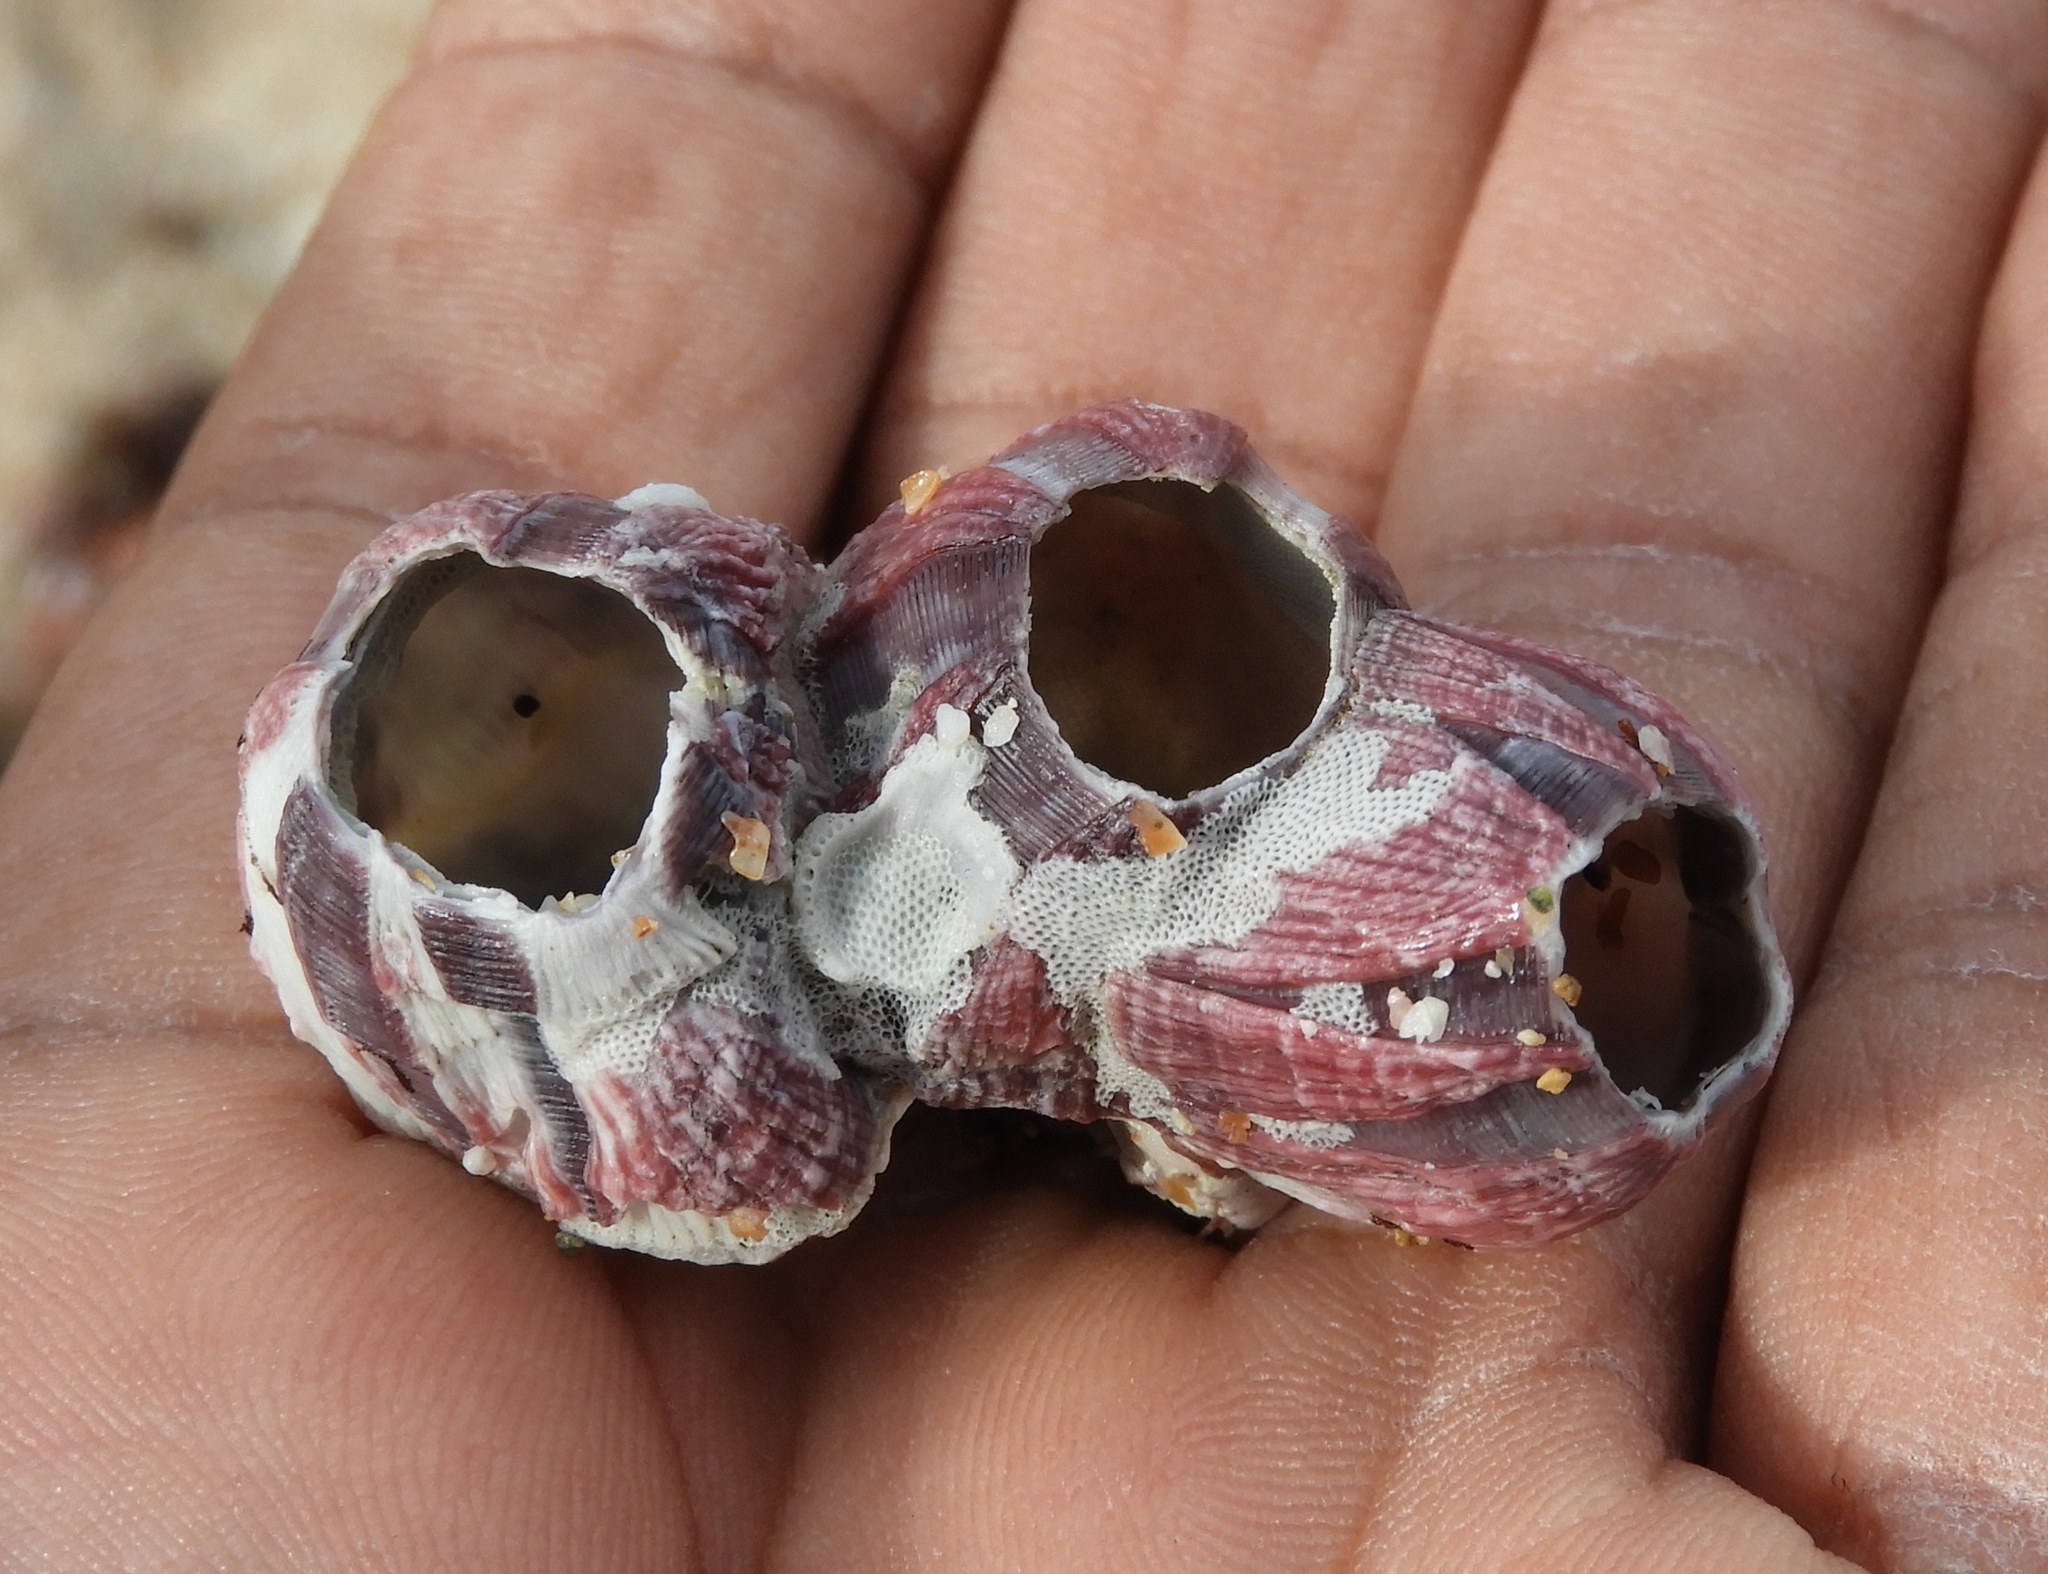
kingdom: Animalia
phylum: Arthropoda
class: Maxillopoda
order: Sessilia
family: Balanidae
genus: Megabalanus
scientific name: Megabalanus tintinnabulum
